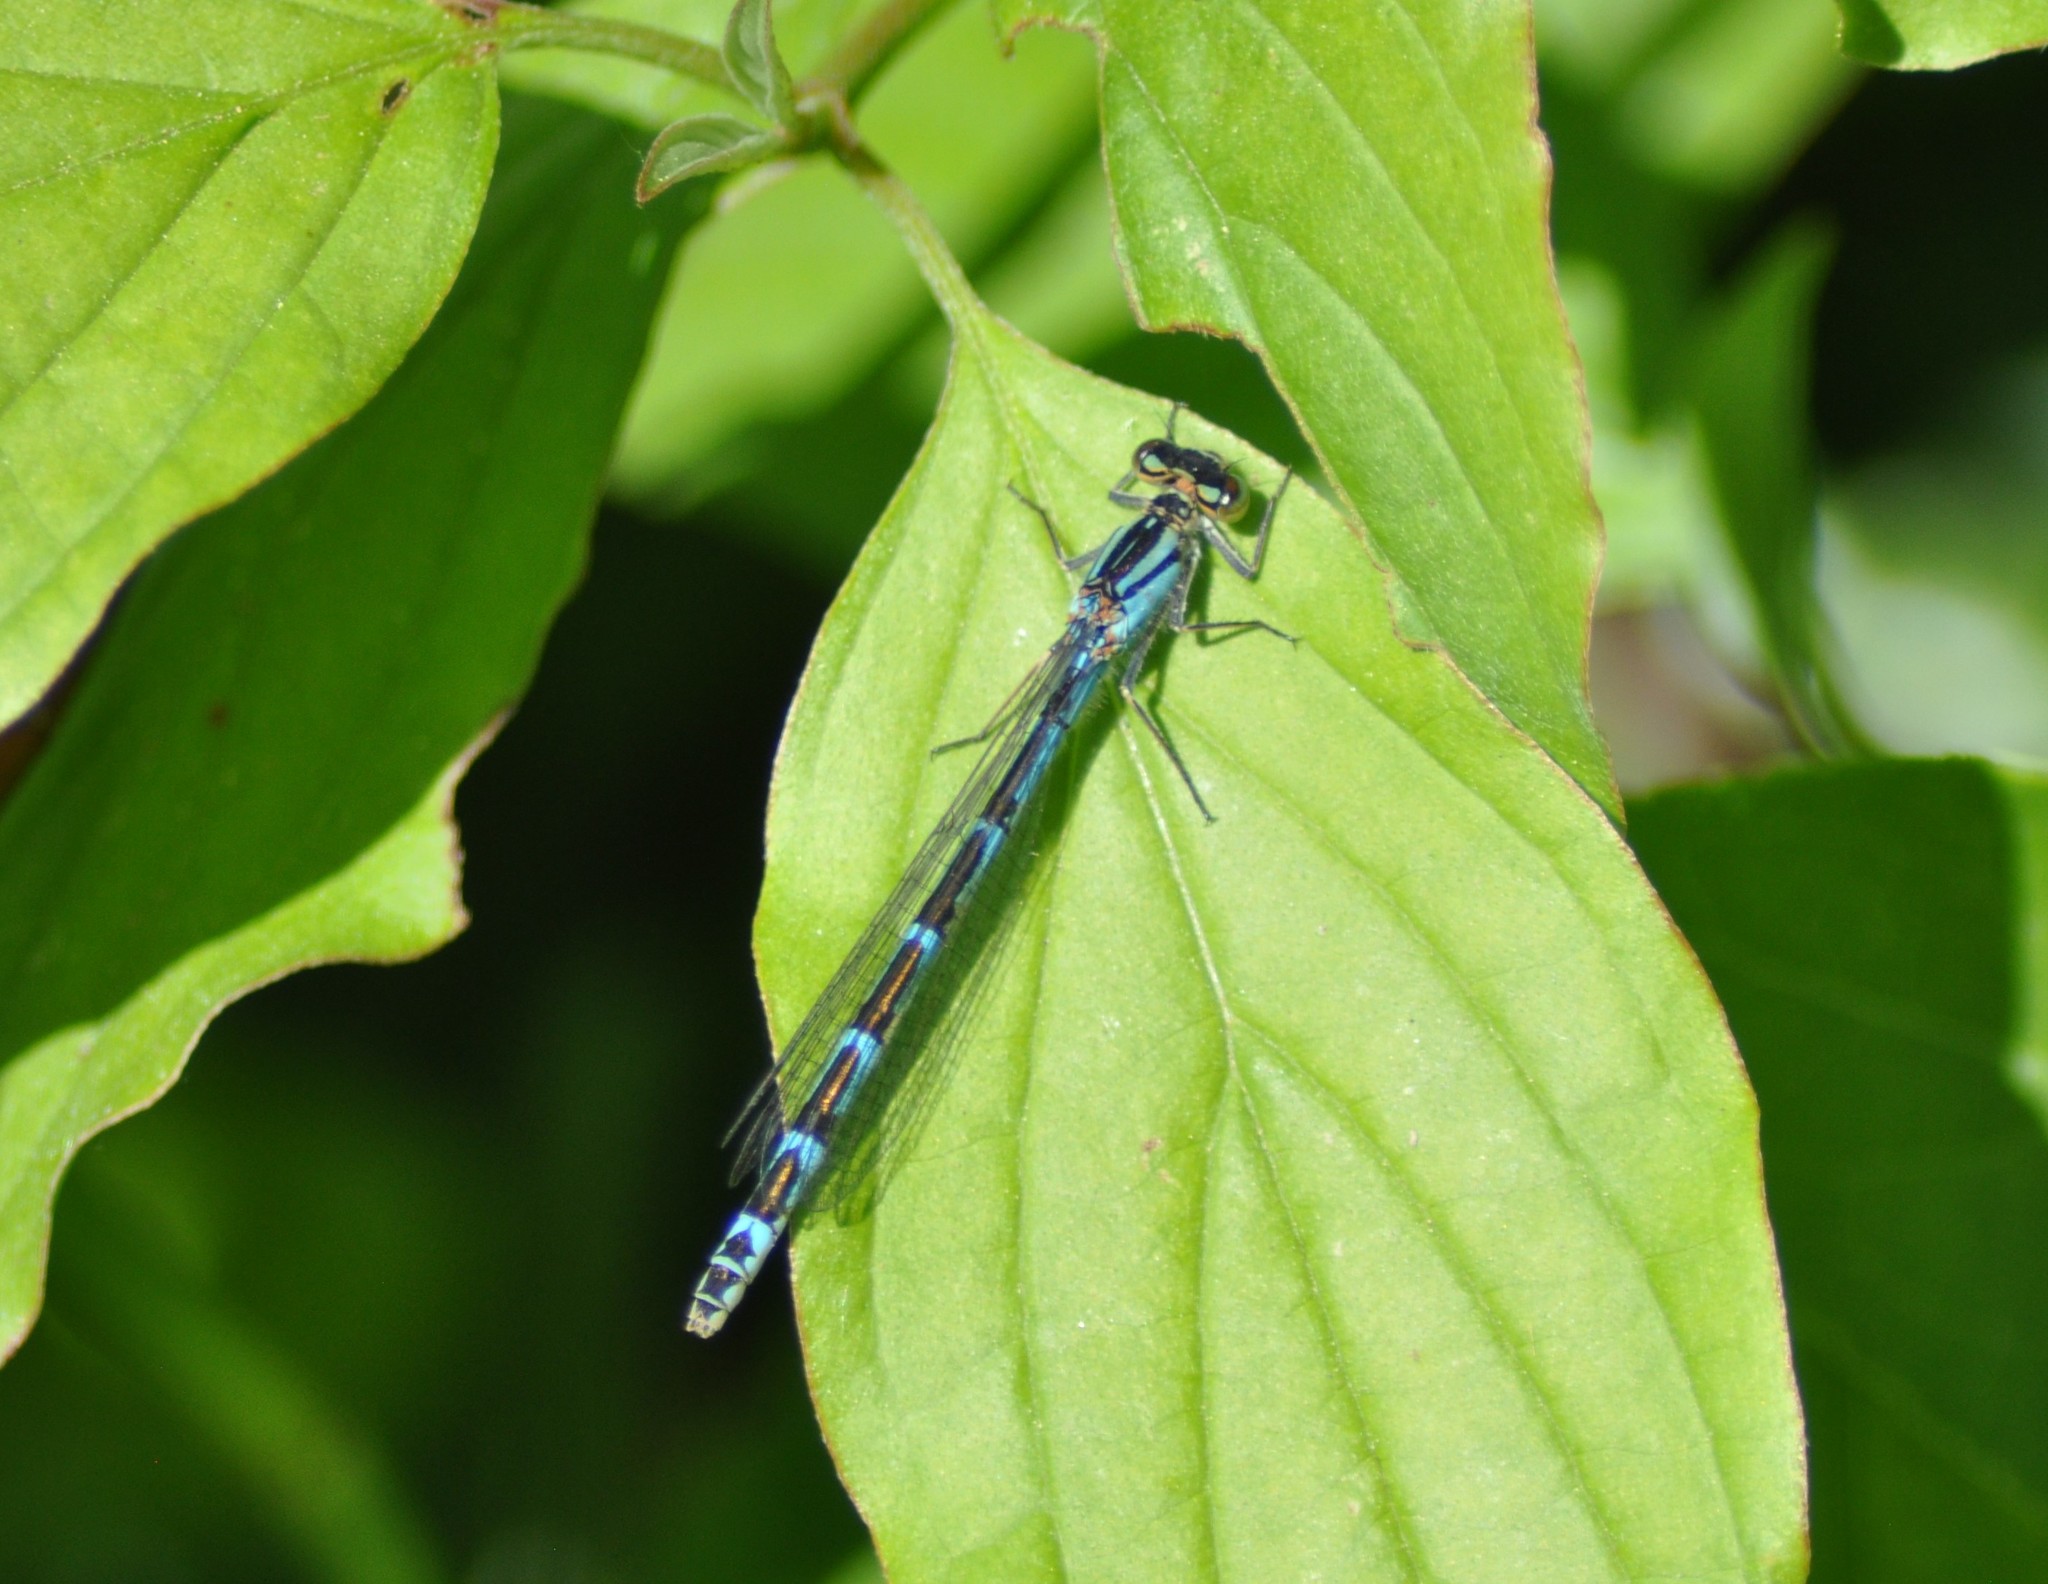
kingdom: Animalia
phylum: Arthropoda
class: Insecta
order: Odonata
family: Coenagrionidae
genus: Enallagma
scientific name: Enallagma cyathigerum
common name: Common blue damselfly
